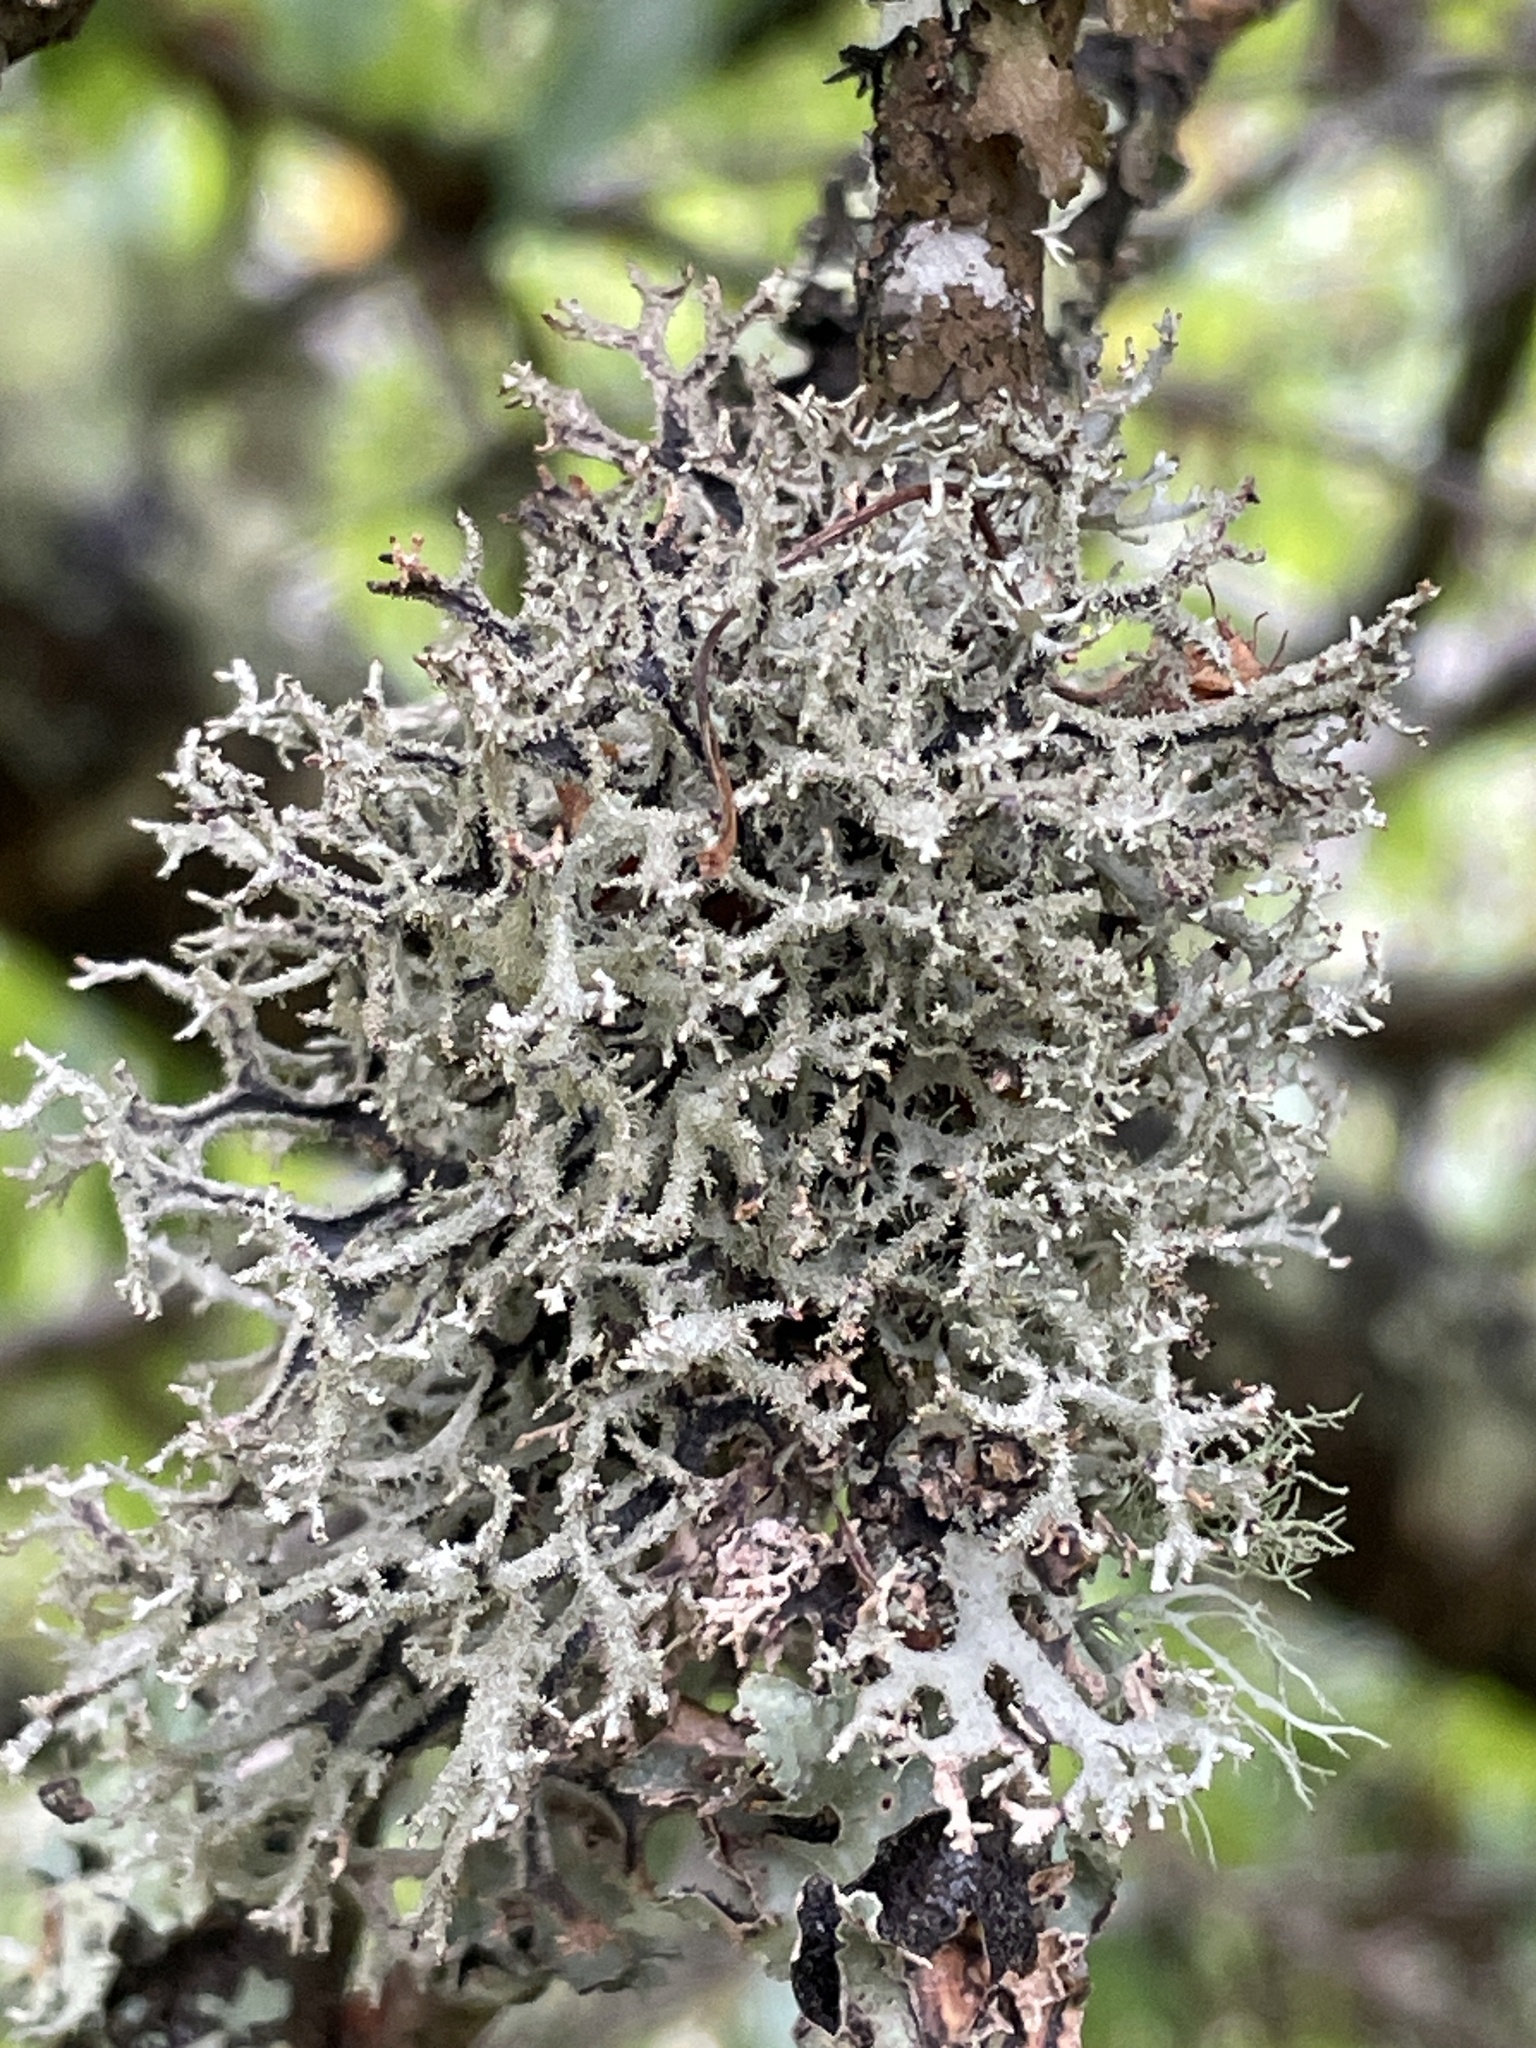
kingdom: Fungi
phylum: Ascomycota
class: Lecanoromycetes
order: Lecanorales
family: Parmeliaceae
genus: Pseudevernia
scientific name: Pseudevernia furfuracea
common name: Tree moss
